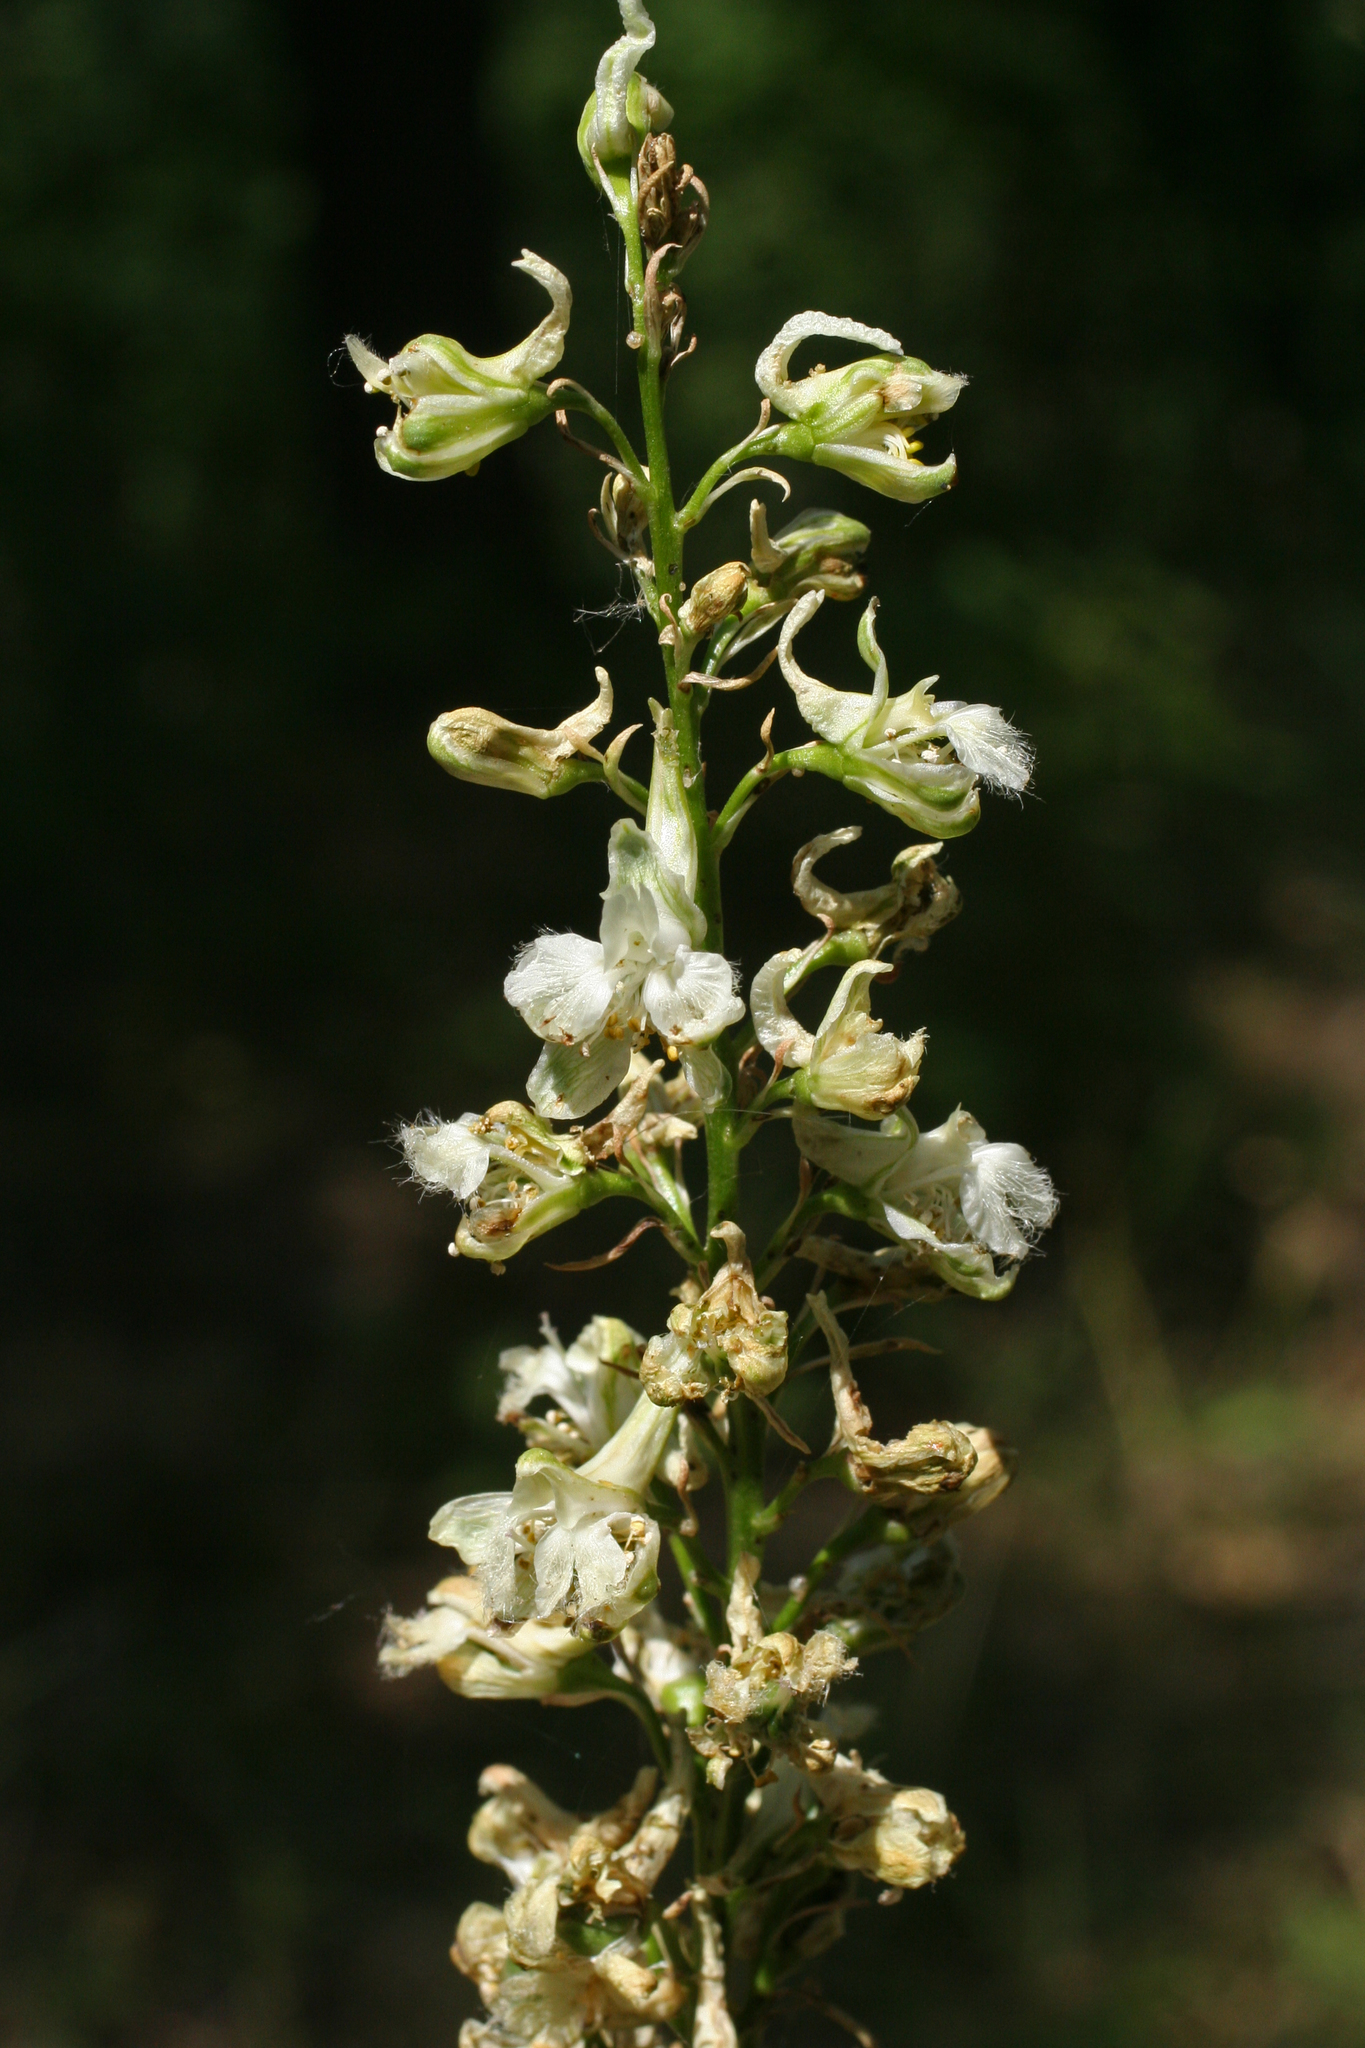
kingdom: Plantae
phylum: Tracheophyta
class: Magnoliopsida
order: Ranunculales
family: Ranunculaceae
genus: Delphinium
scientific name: Delphinium macropogon
